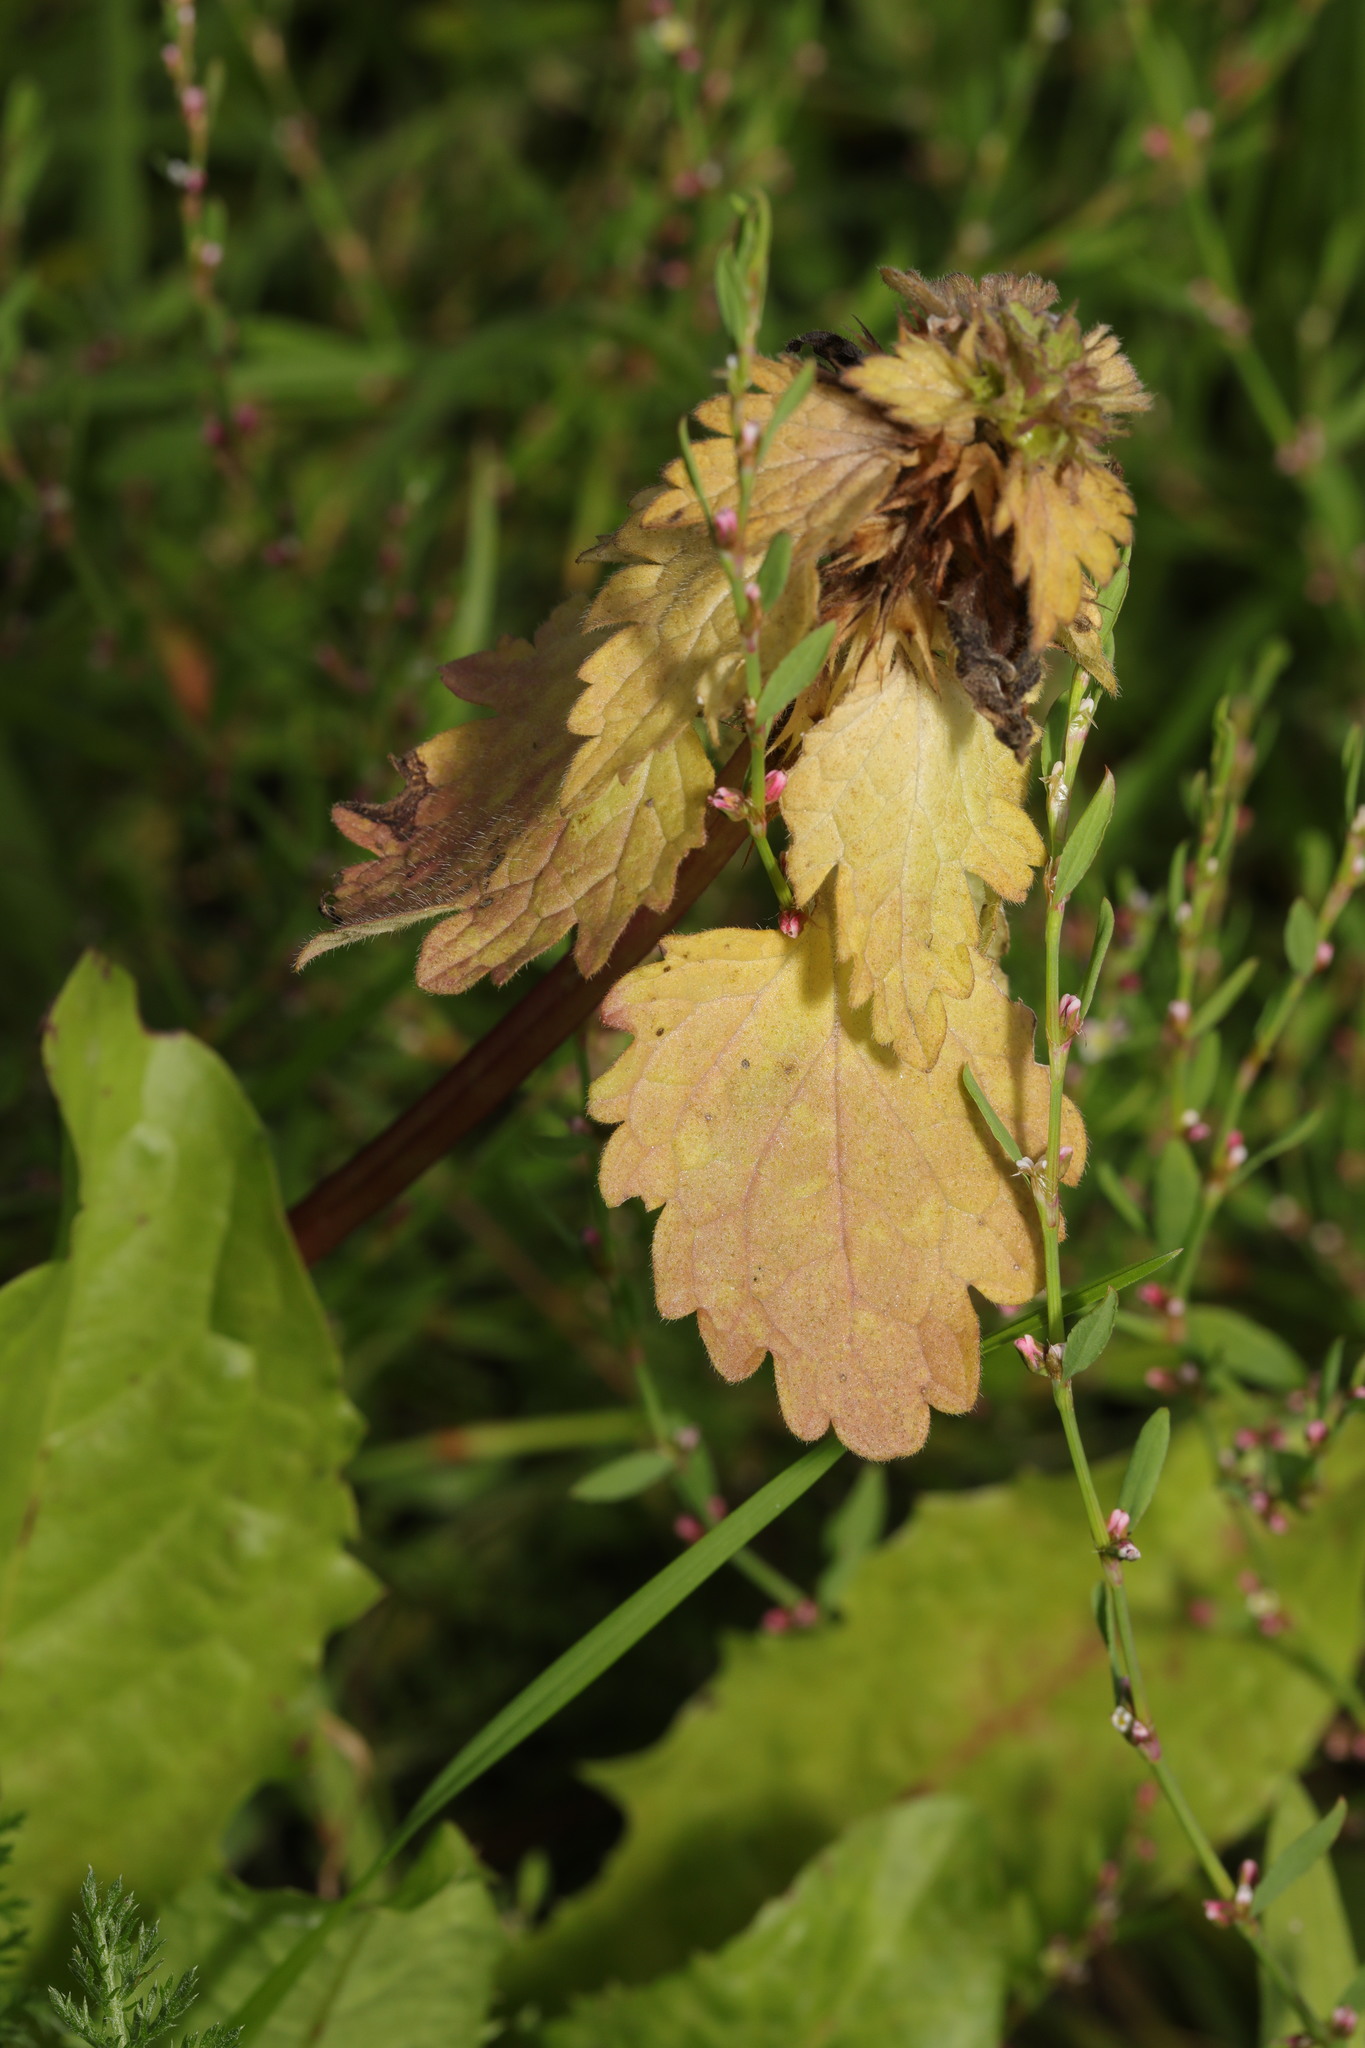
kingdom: Plantae
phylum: Tracheophyta
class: Magnoliopsida
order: Lamiales
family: Lamiaceae
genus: Lamium
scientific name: Lamium purpureum
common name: Red dead-nettle
